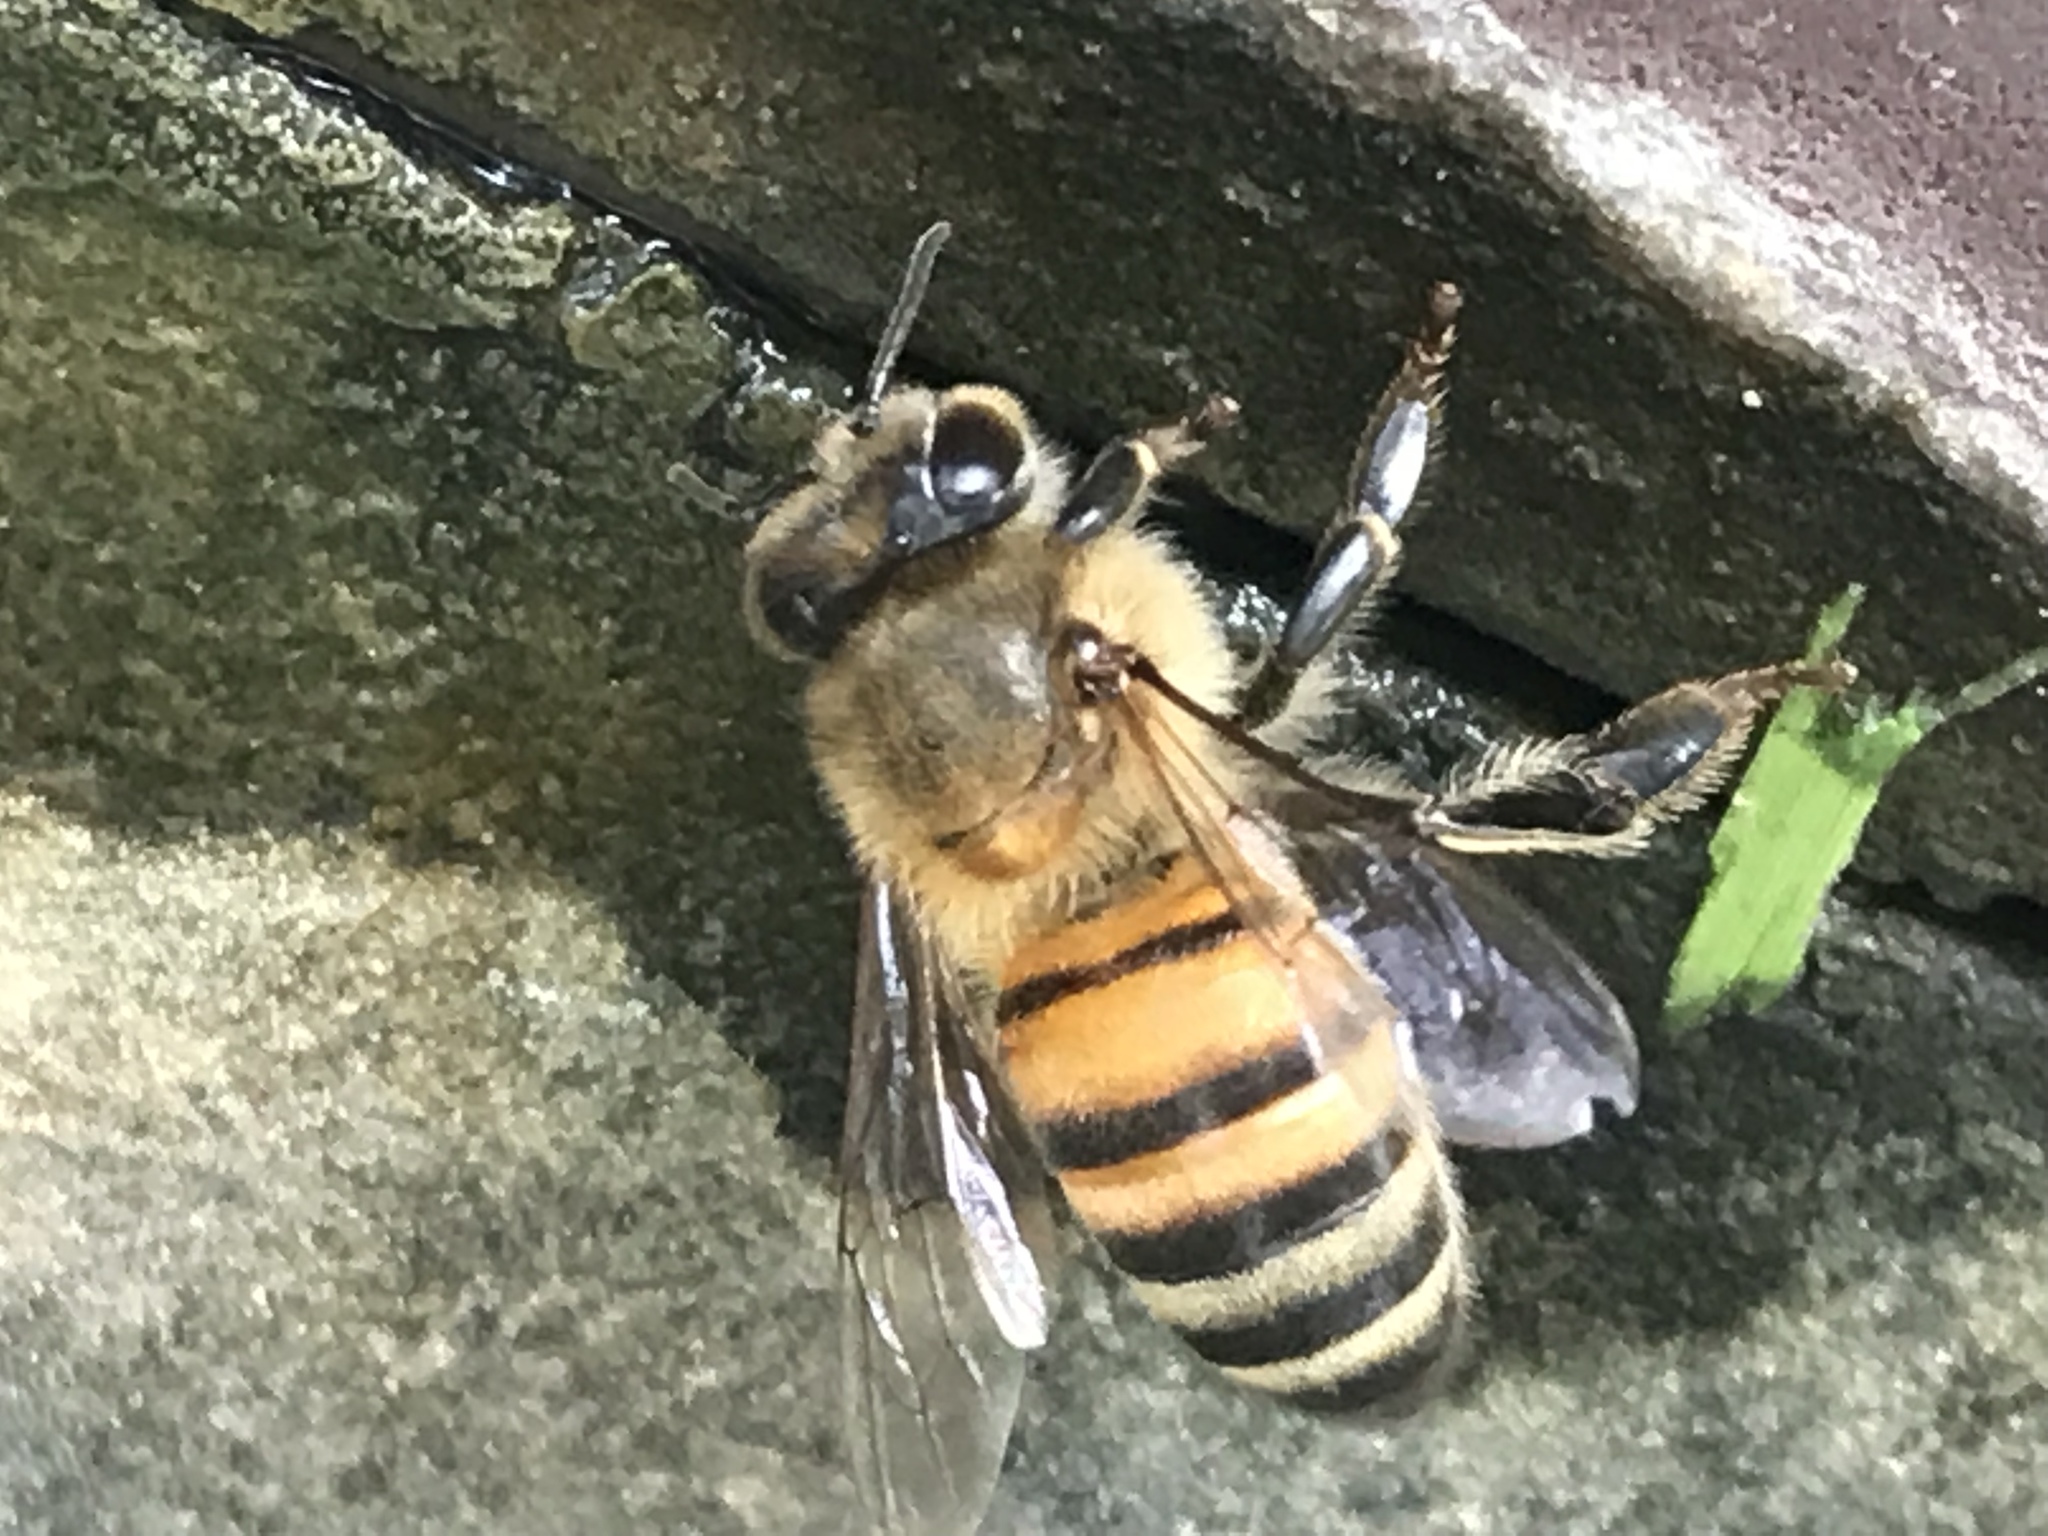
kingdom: Animalia
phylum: Arthropoda
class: Insecta
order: Hymenoptera
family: Apidae
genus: Apis
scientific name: Apis mellifera
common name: Honey bee
